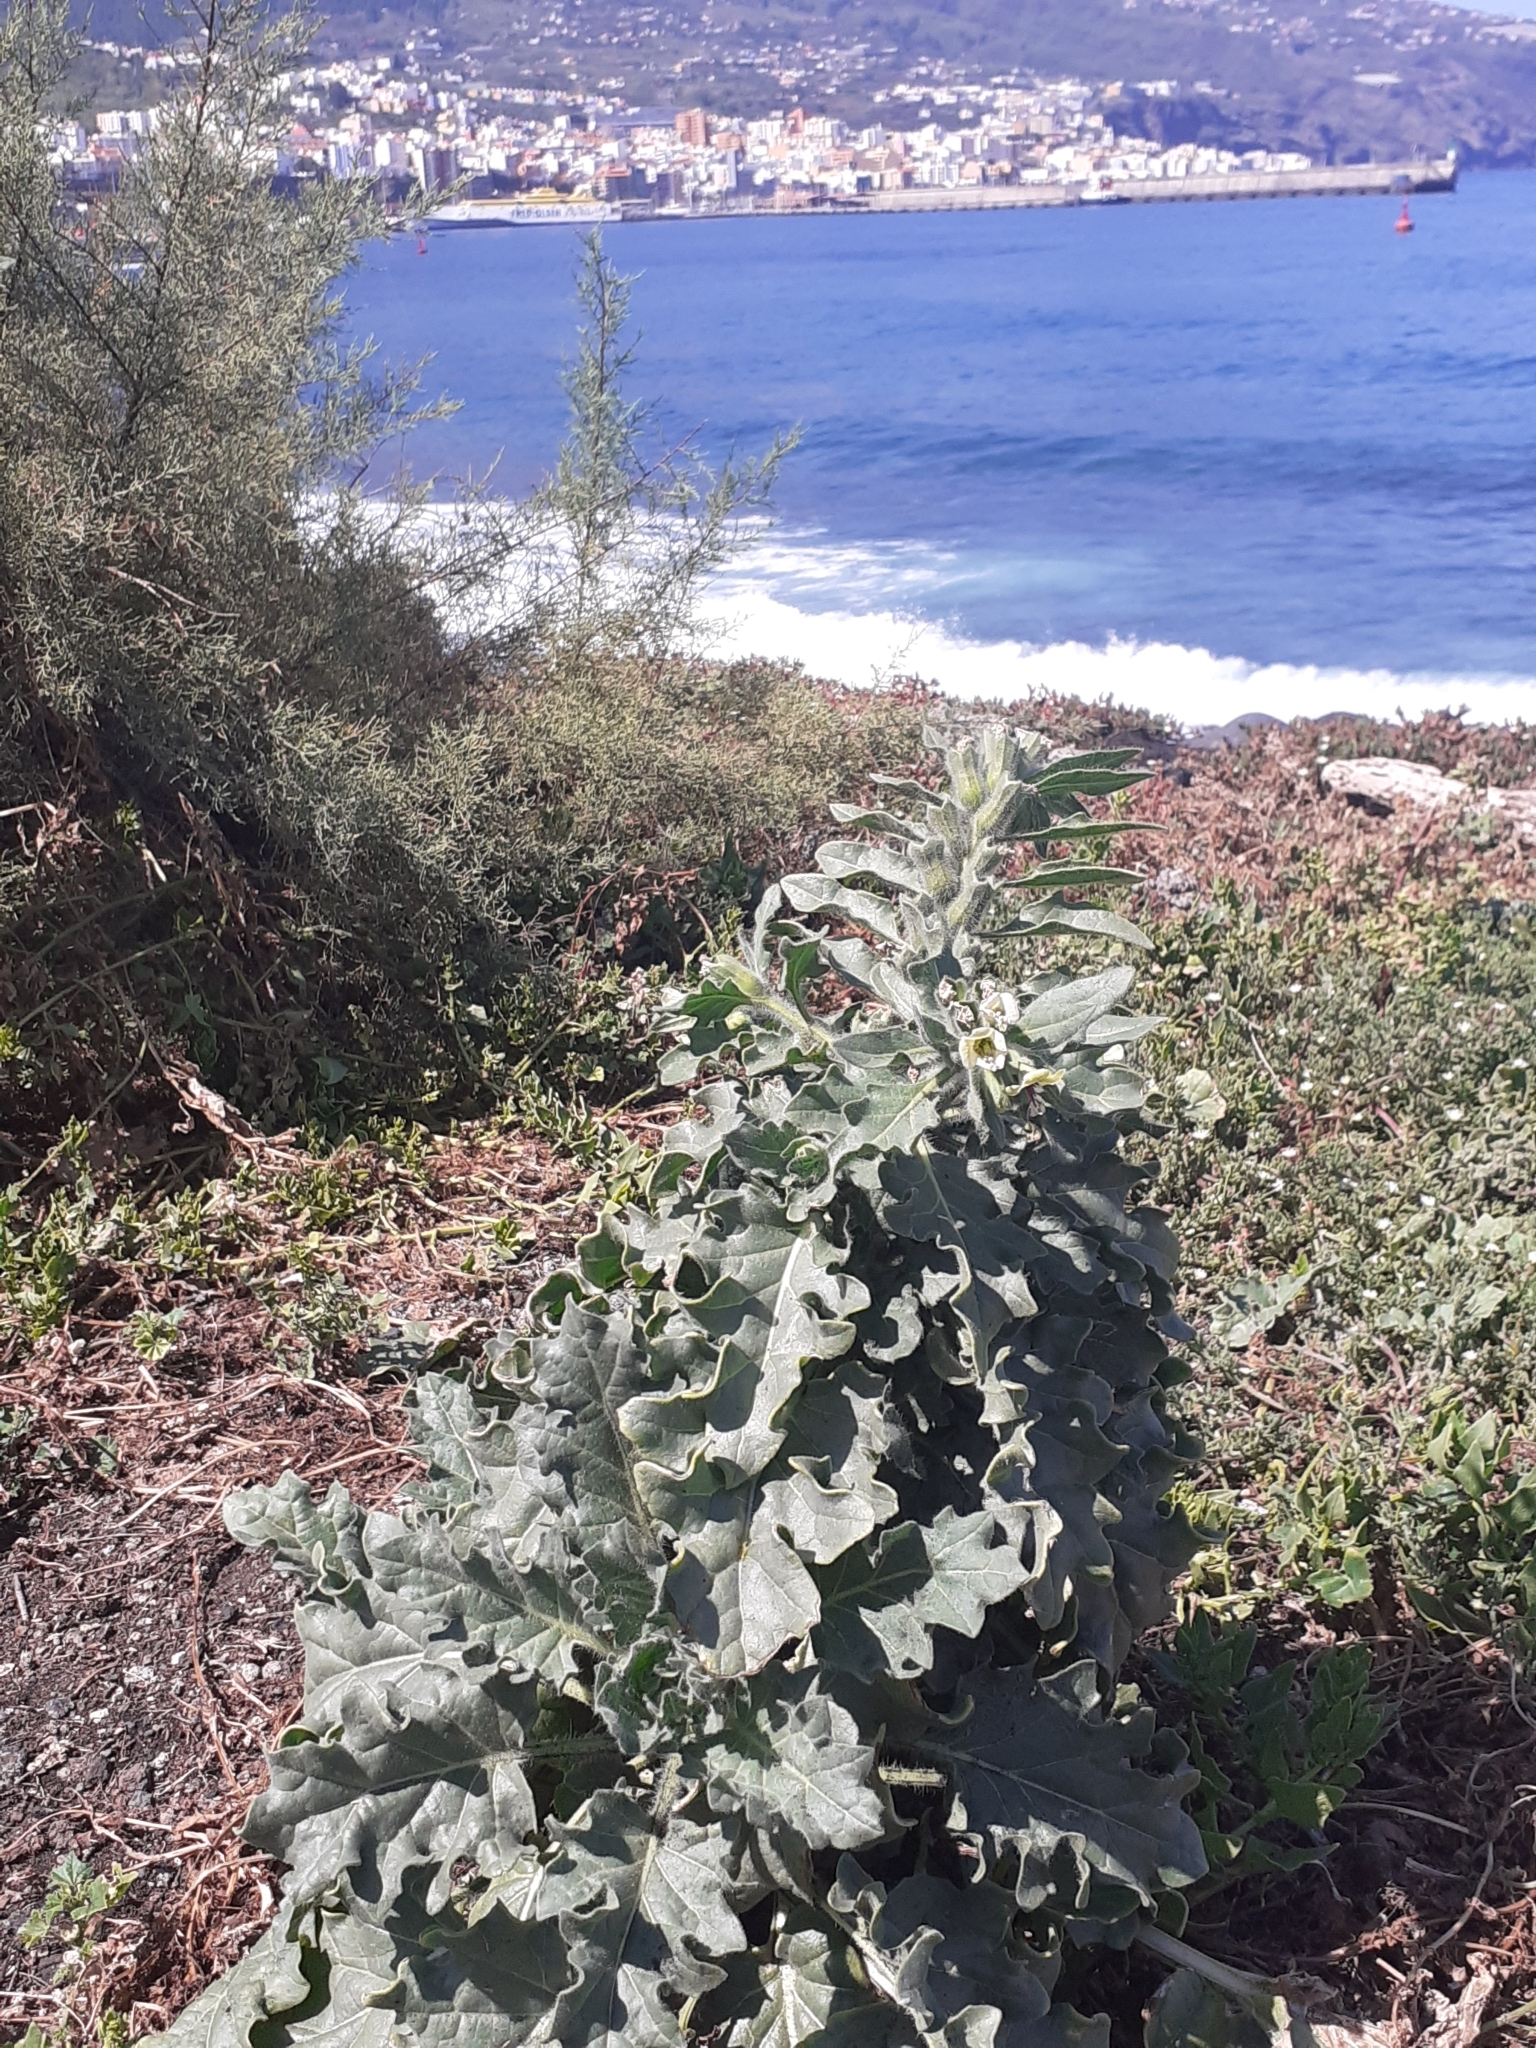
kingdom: Plantae
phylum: Tracheophyta
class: Magnoliopsida
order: Solanales
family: Solanaceae
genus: Hyoscyamus
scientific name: Hyoscyamus albus
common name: White henbane
